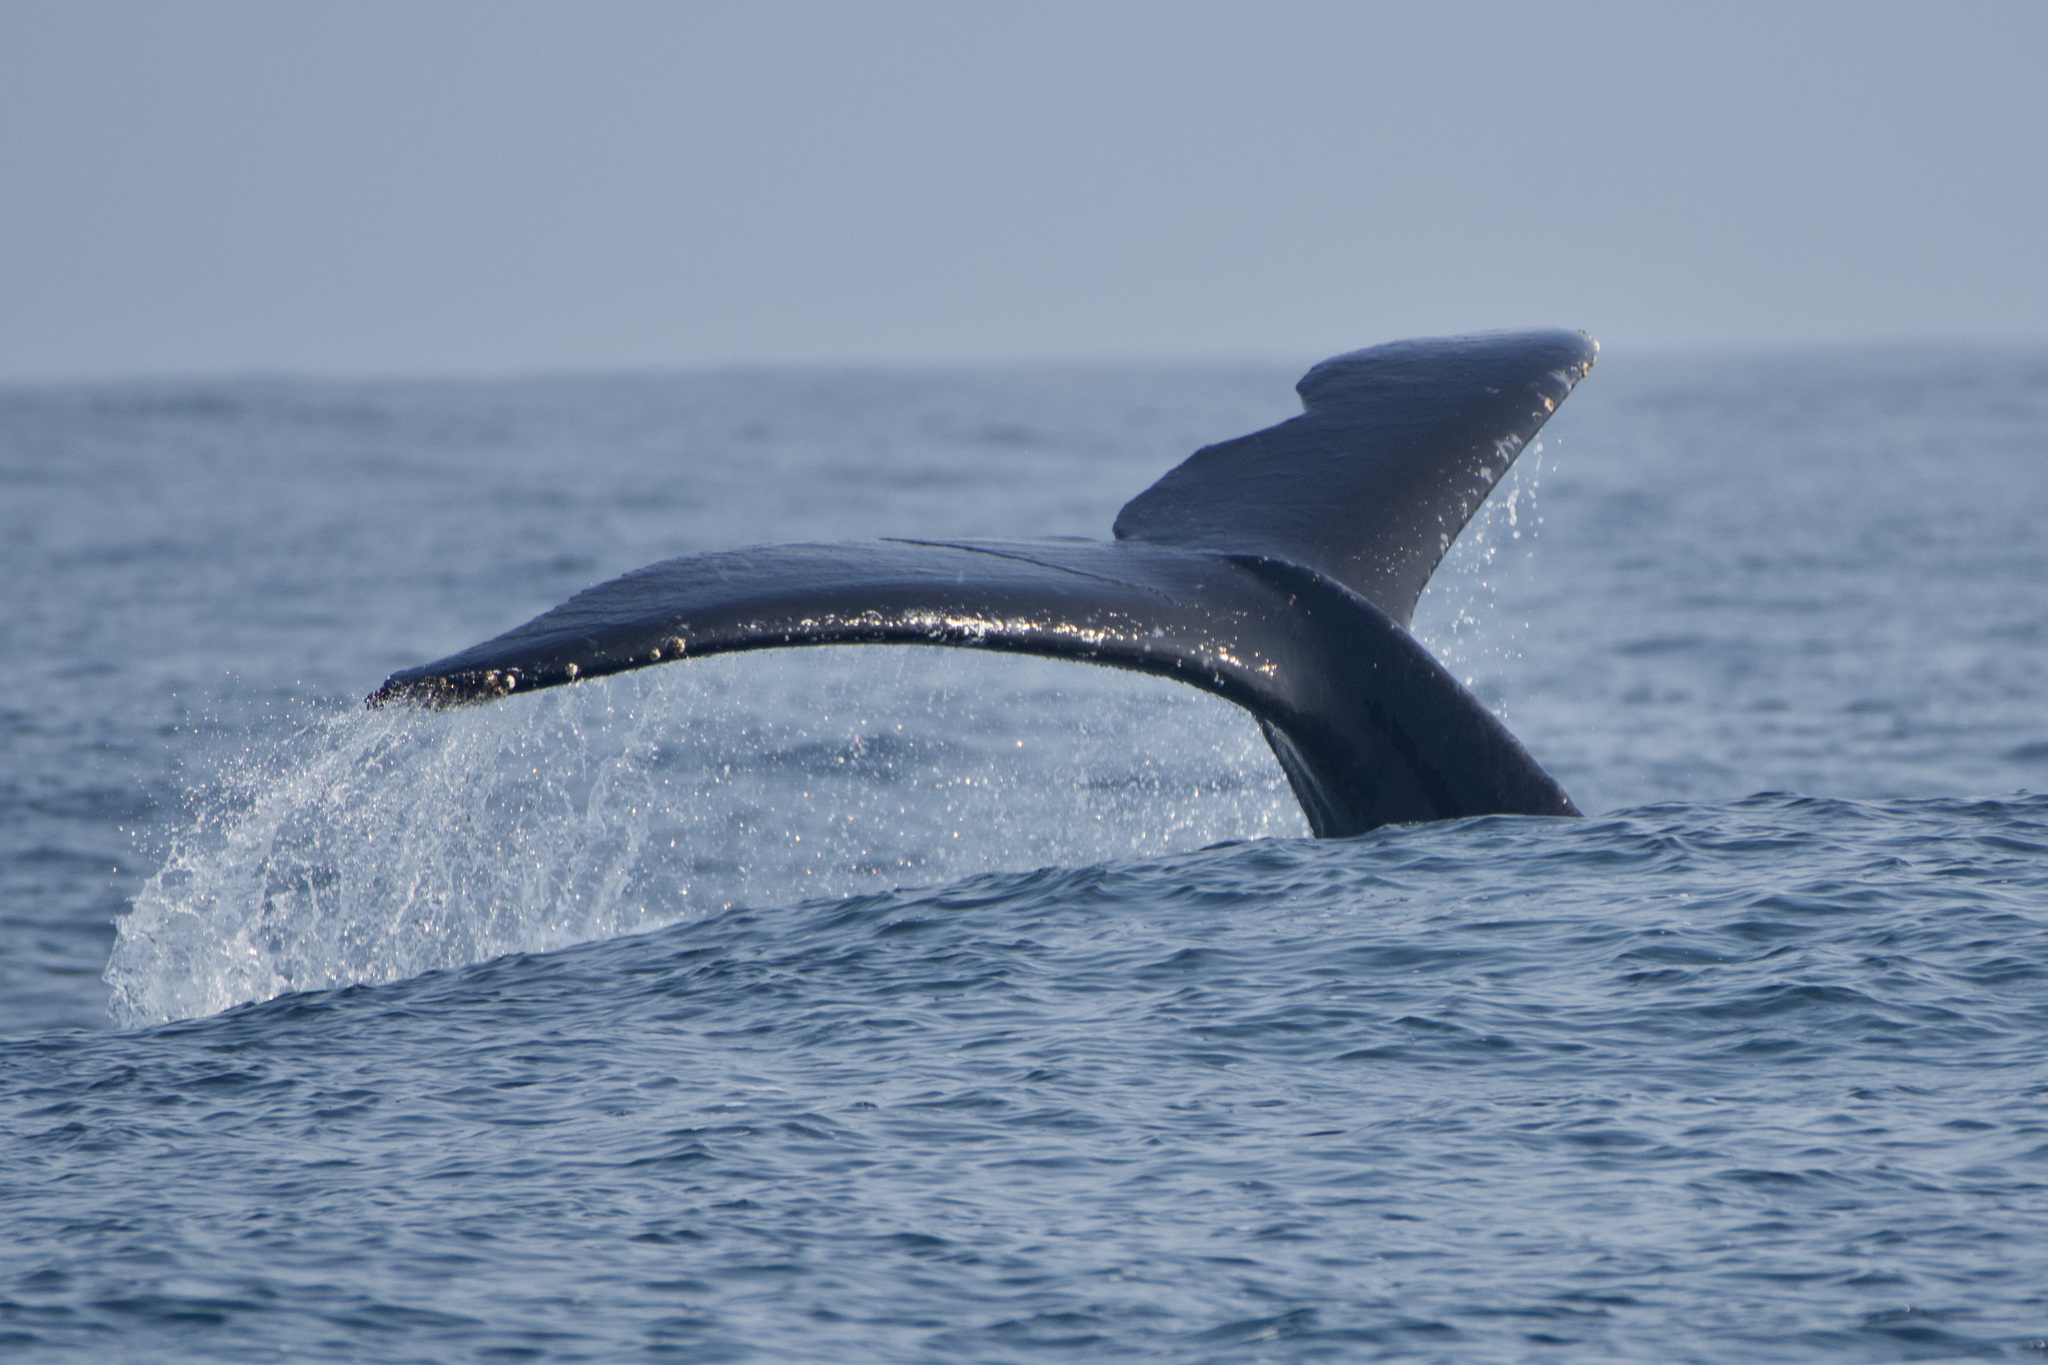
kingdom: Animalia
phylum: Chordata
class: Mammalia
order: Cetacea
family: Balaenopteridae
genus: Megaptera
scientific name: Megaptera novaeangliae
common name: Humpback whale
